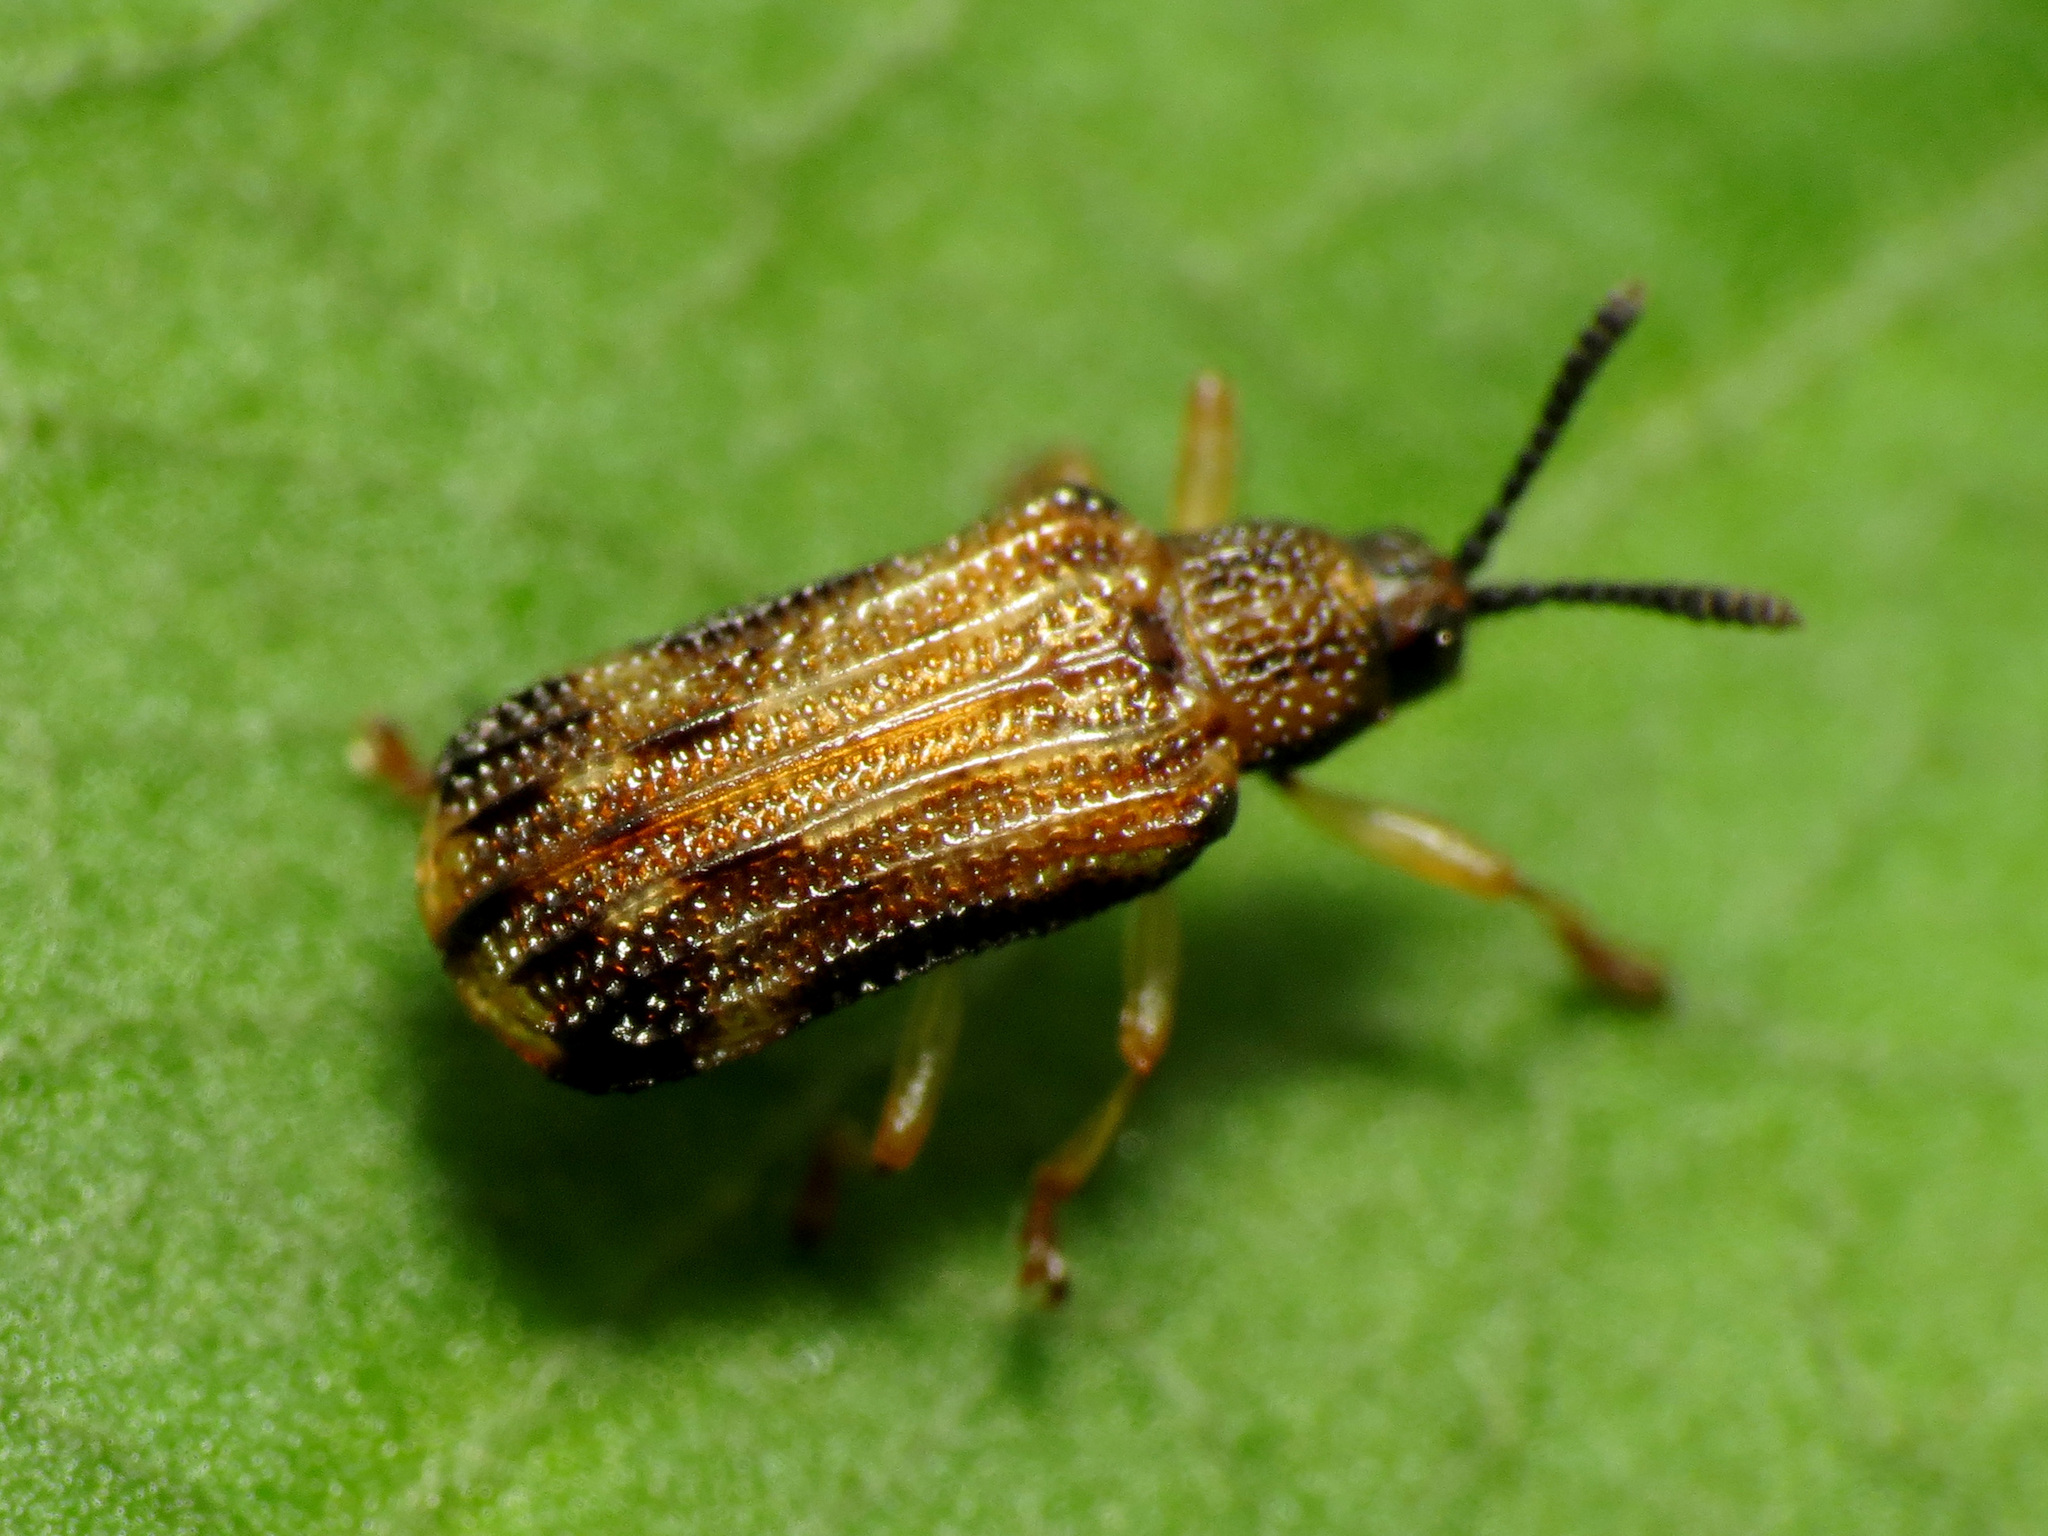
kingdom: Animalia
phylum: Arthropoda
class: Insecta
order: Coleoptera
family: Chrysomelidae
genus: Sumitrosis
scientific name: Sumitrosis inaequalis
